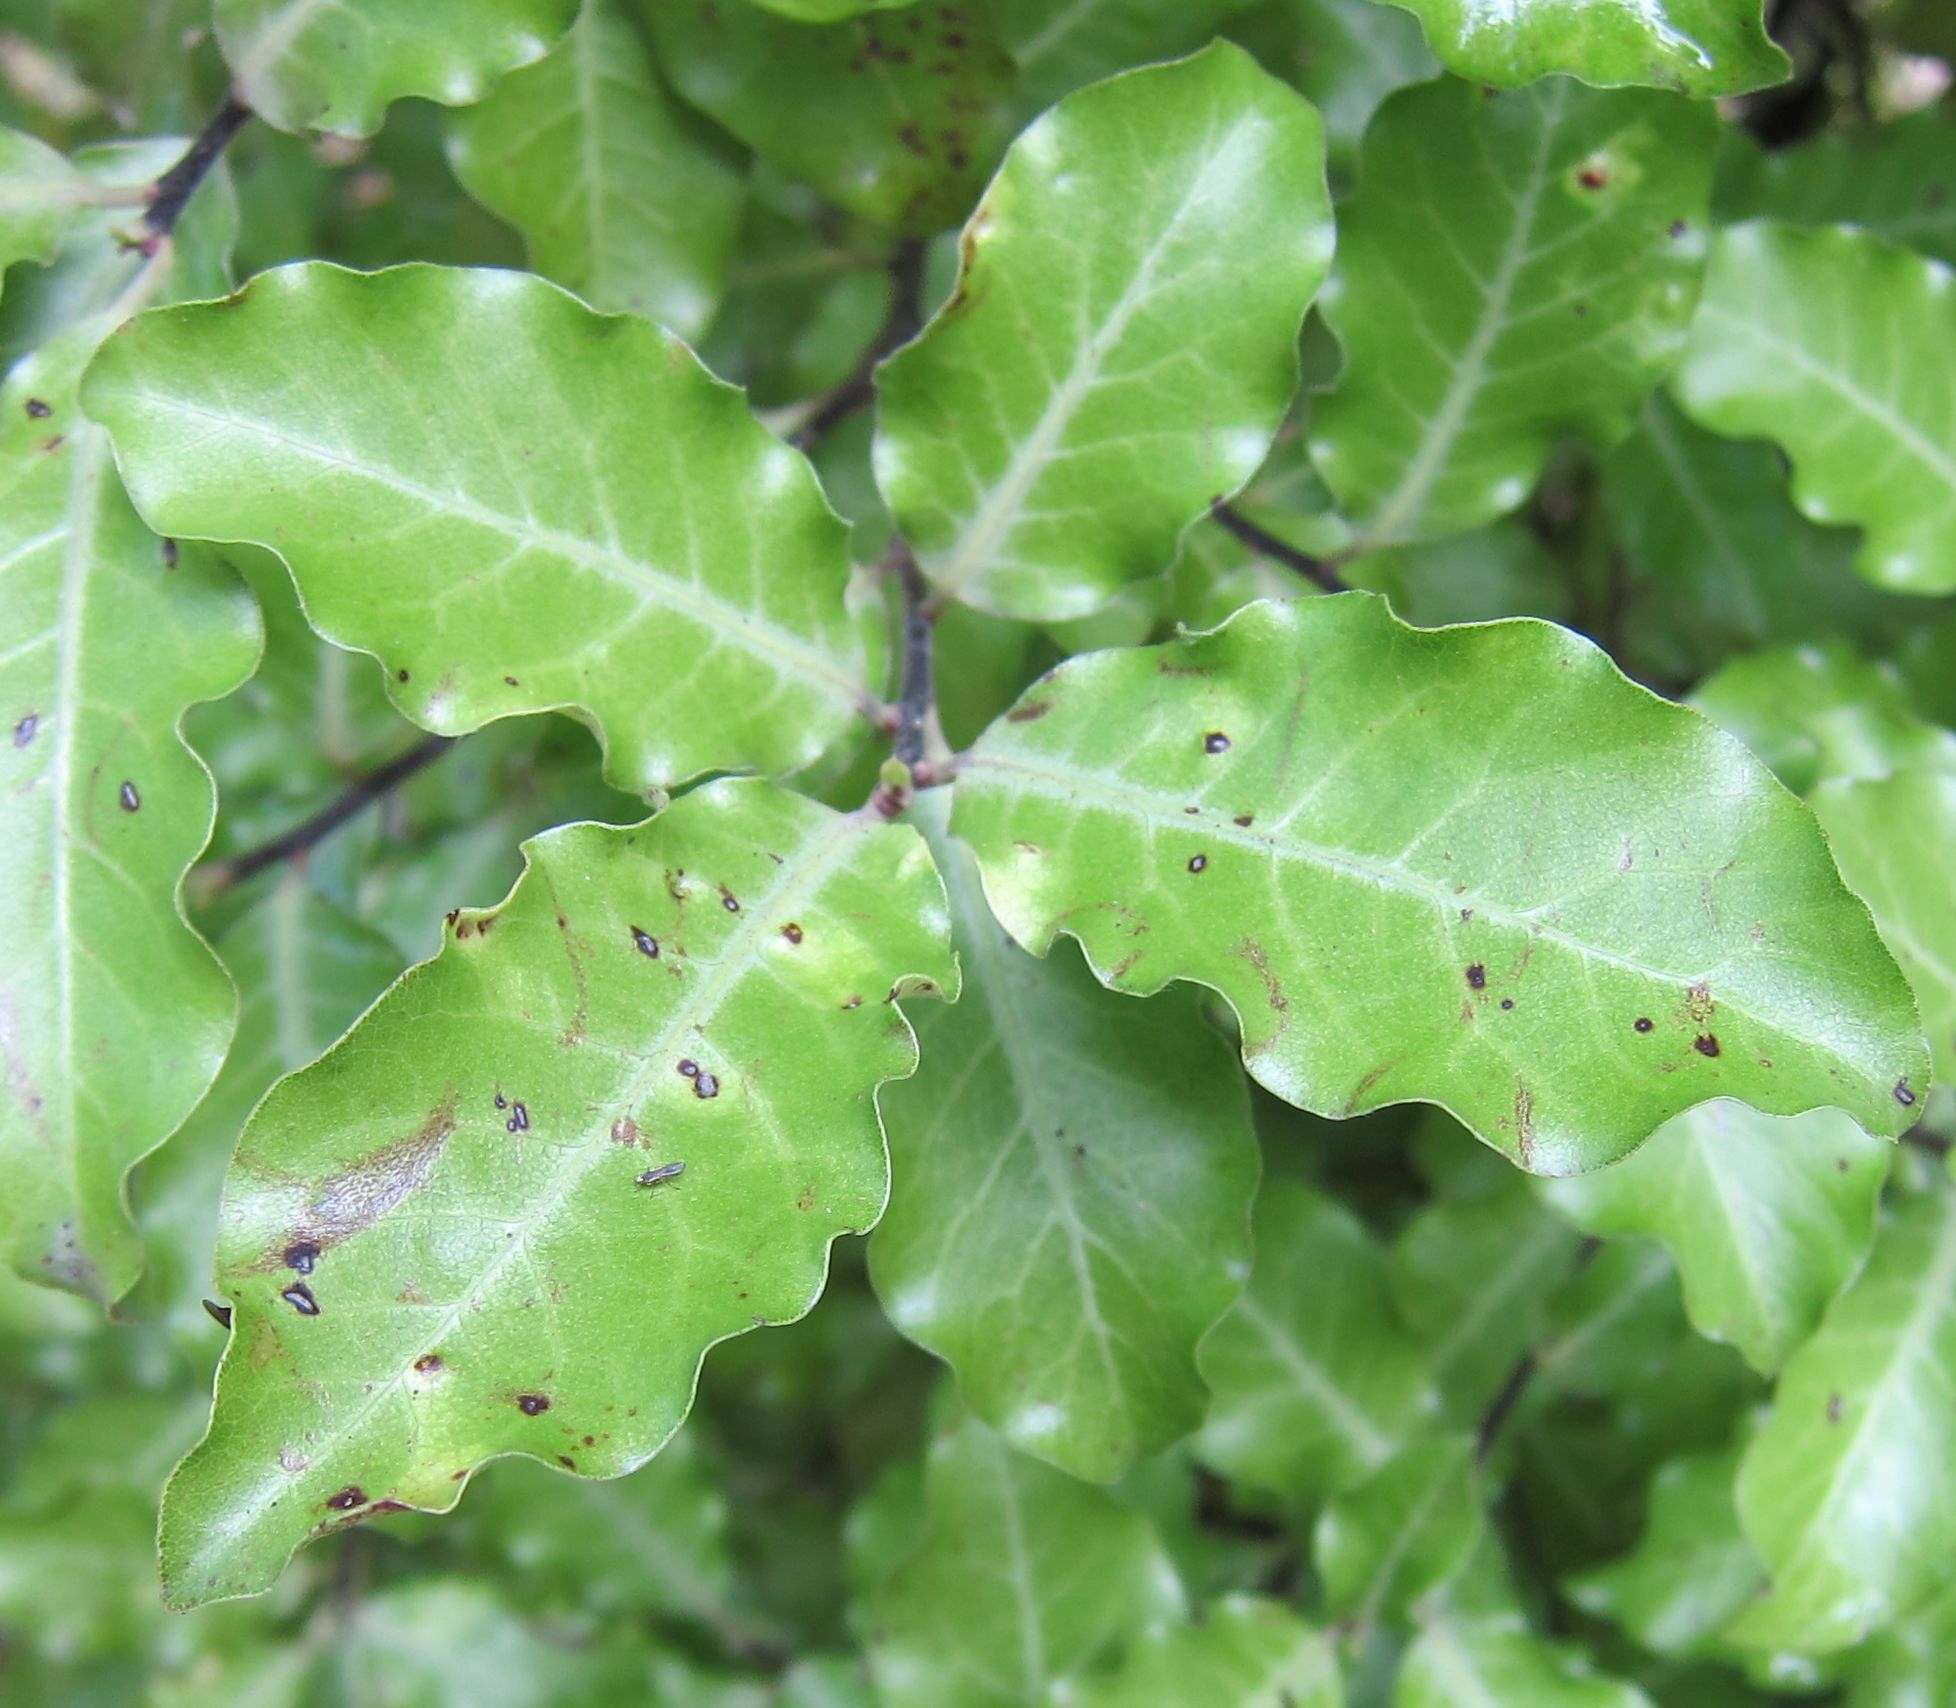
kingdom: Plantae
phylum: Tracheophyta
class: Magnoliopsida
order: Apiales
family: Pittosporaceae
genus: Pittosporum
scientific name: Pittosporum tenuifolium
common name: Kohuhu
